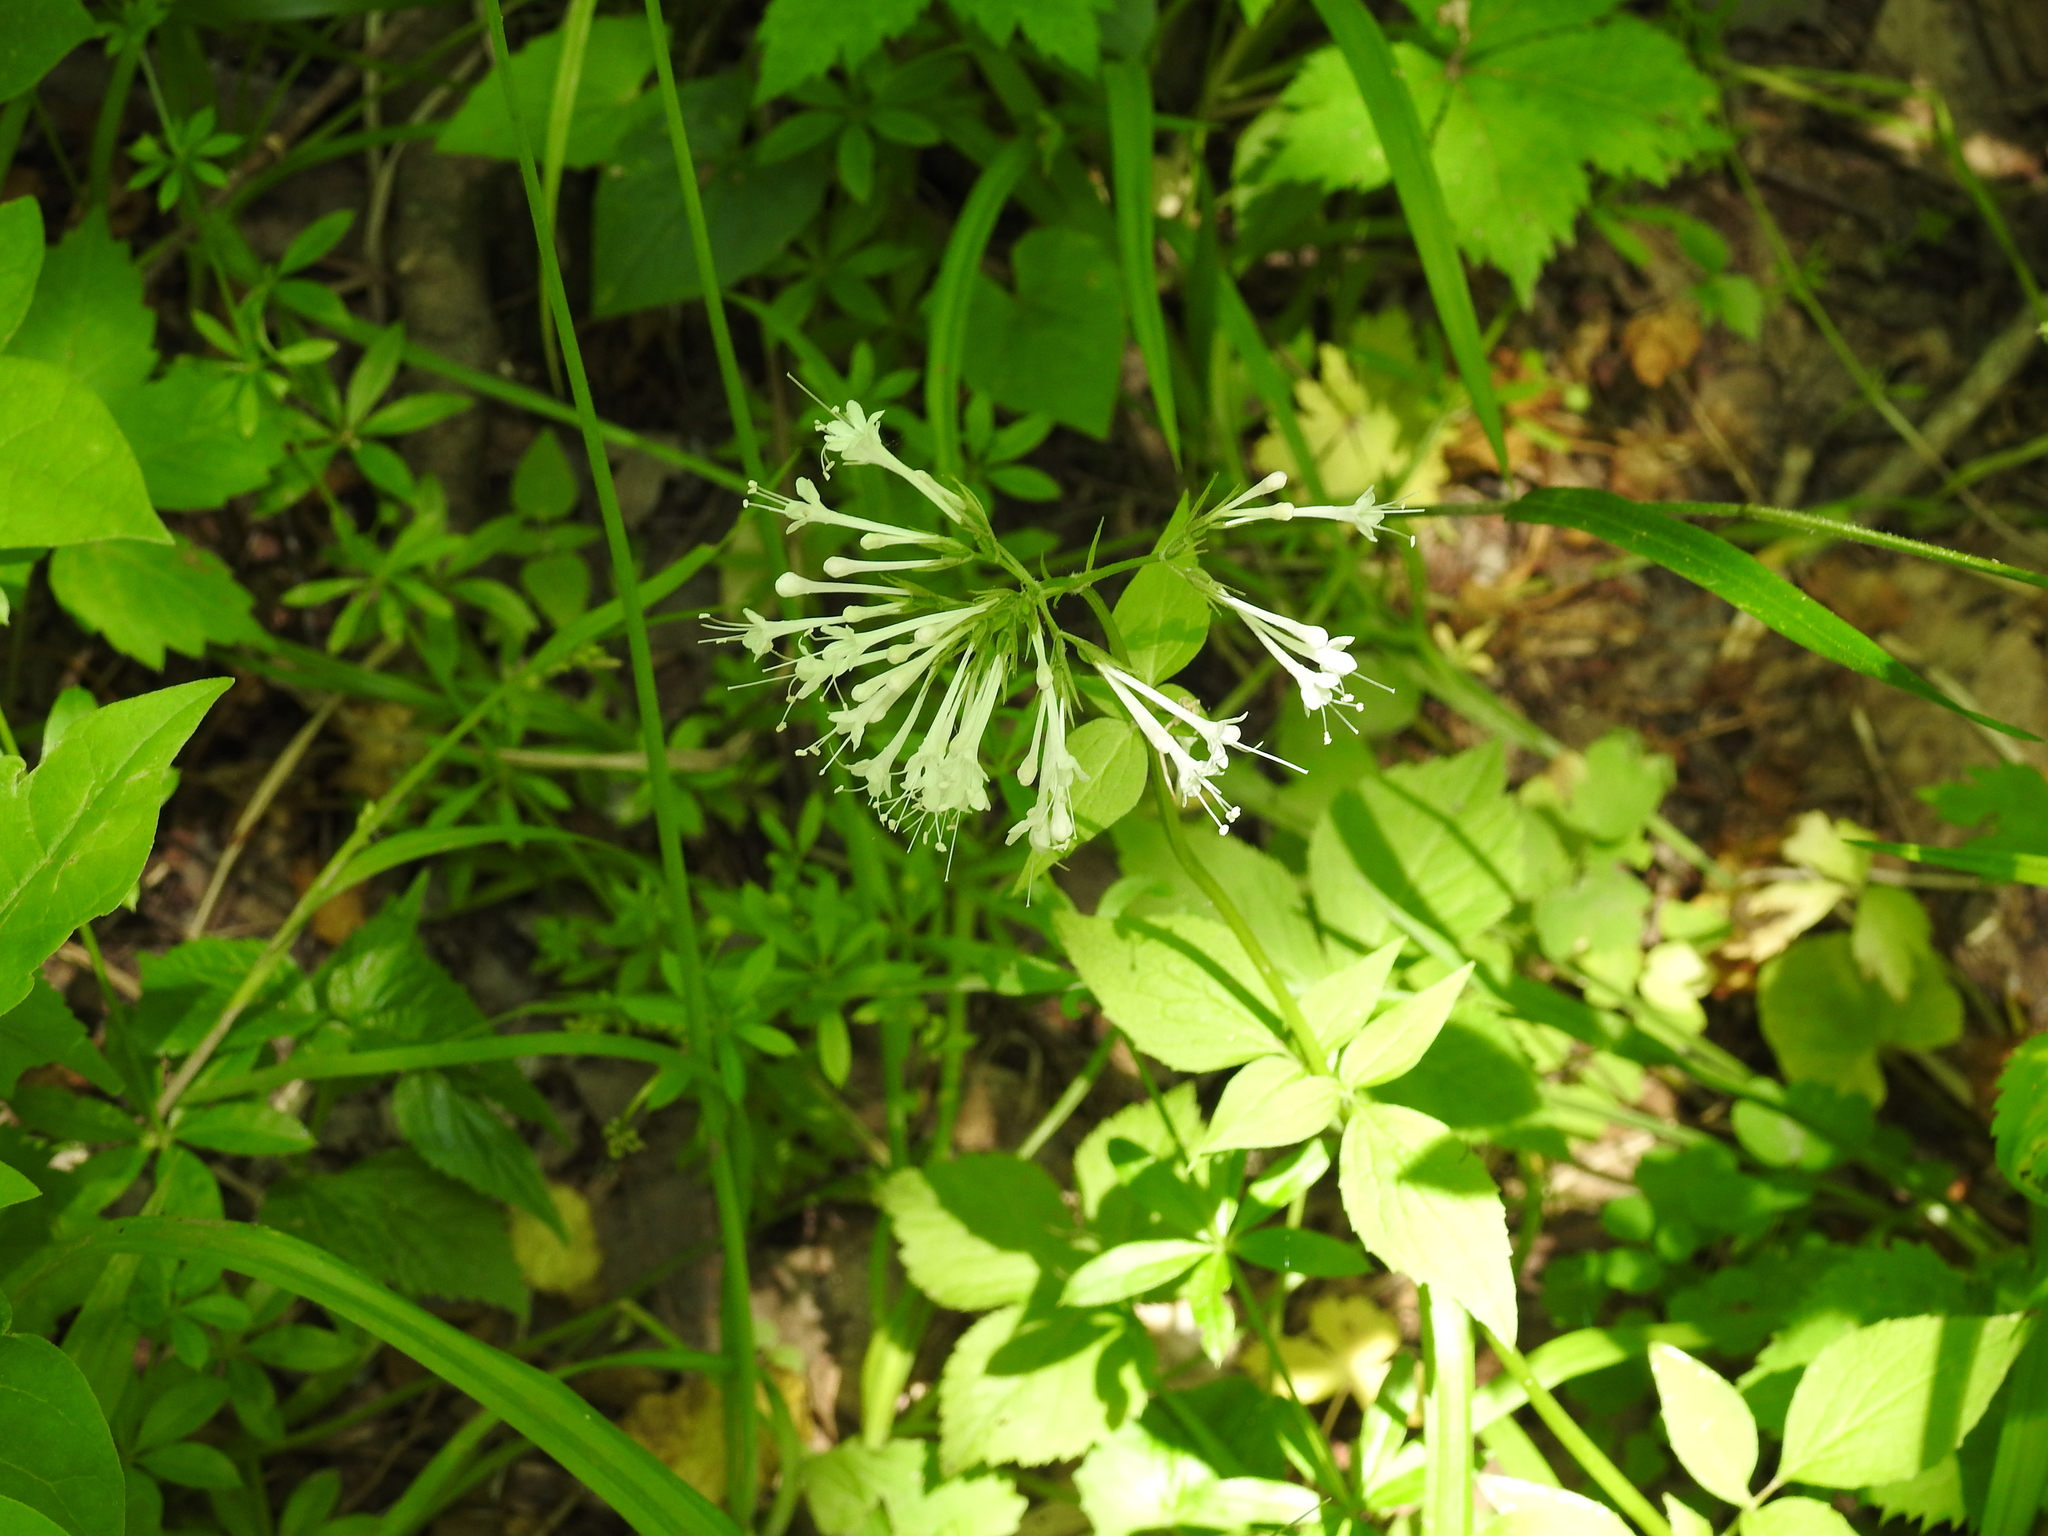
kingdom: Plantae
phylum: Tracheophyta
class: Magnoliopsida
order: Dipsacales
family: Caprifoliaceae
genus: Valeriana
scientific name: Valeriana pauciflora
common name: Long-tube valeriana
